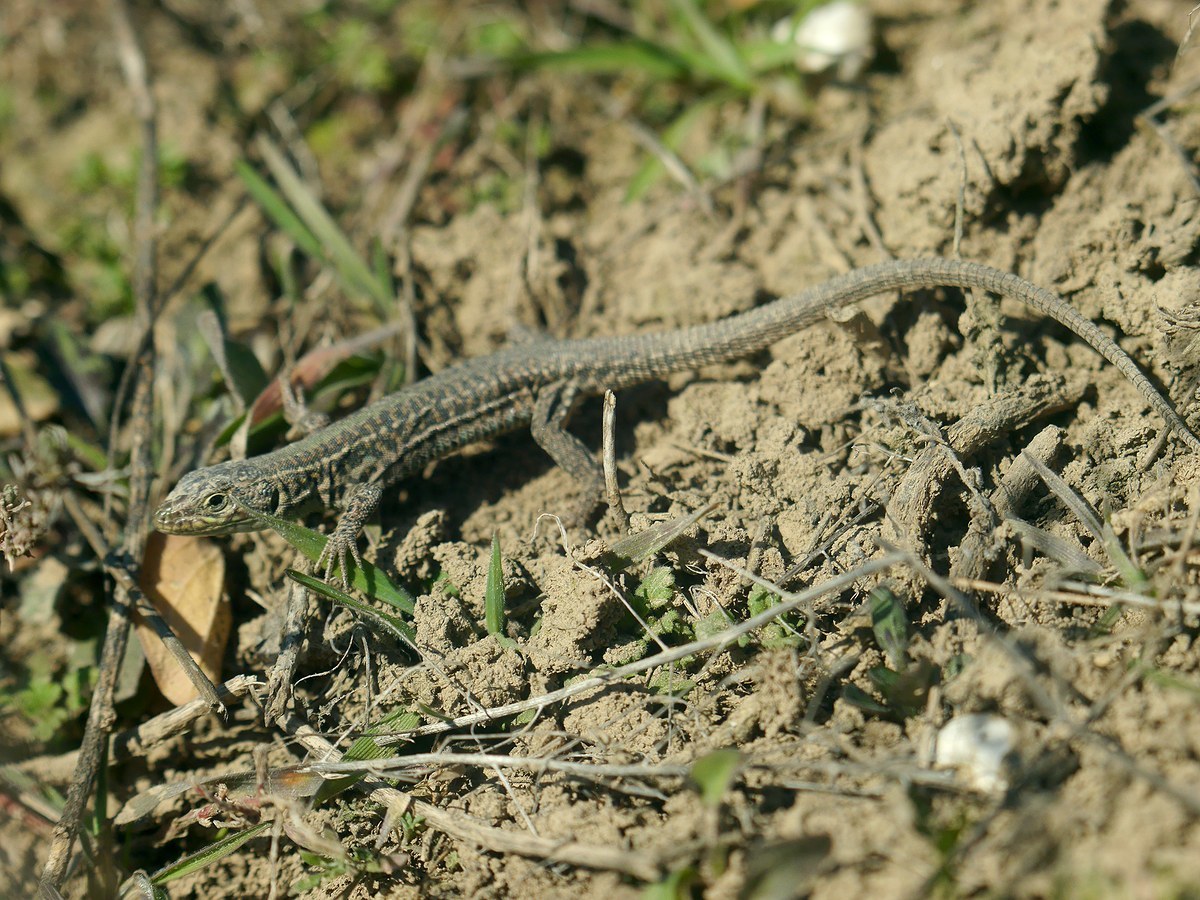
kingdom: Animalia
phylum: Chordata
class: Squamata
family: Lacertidae
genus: Podarcis
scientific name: Podarcis tauricus
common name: Balkan wall lizard
